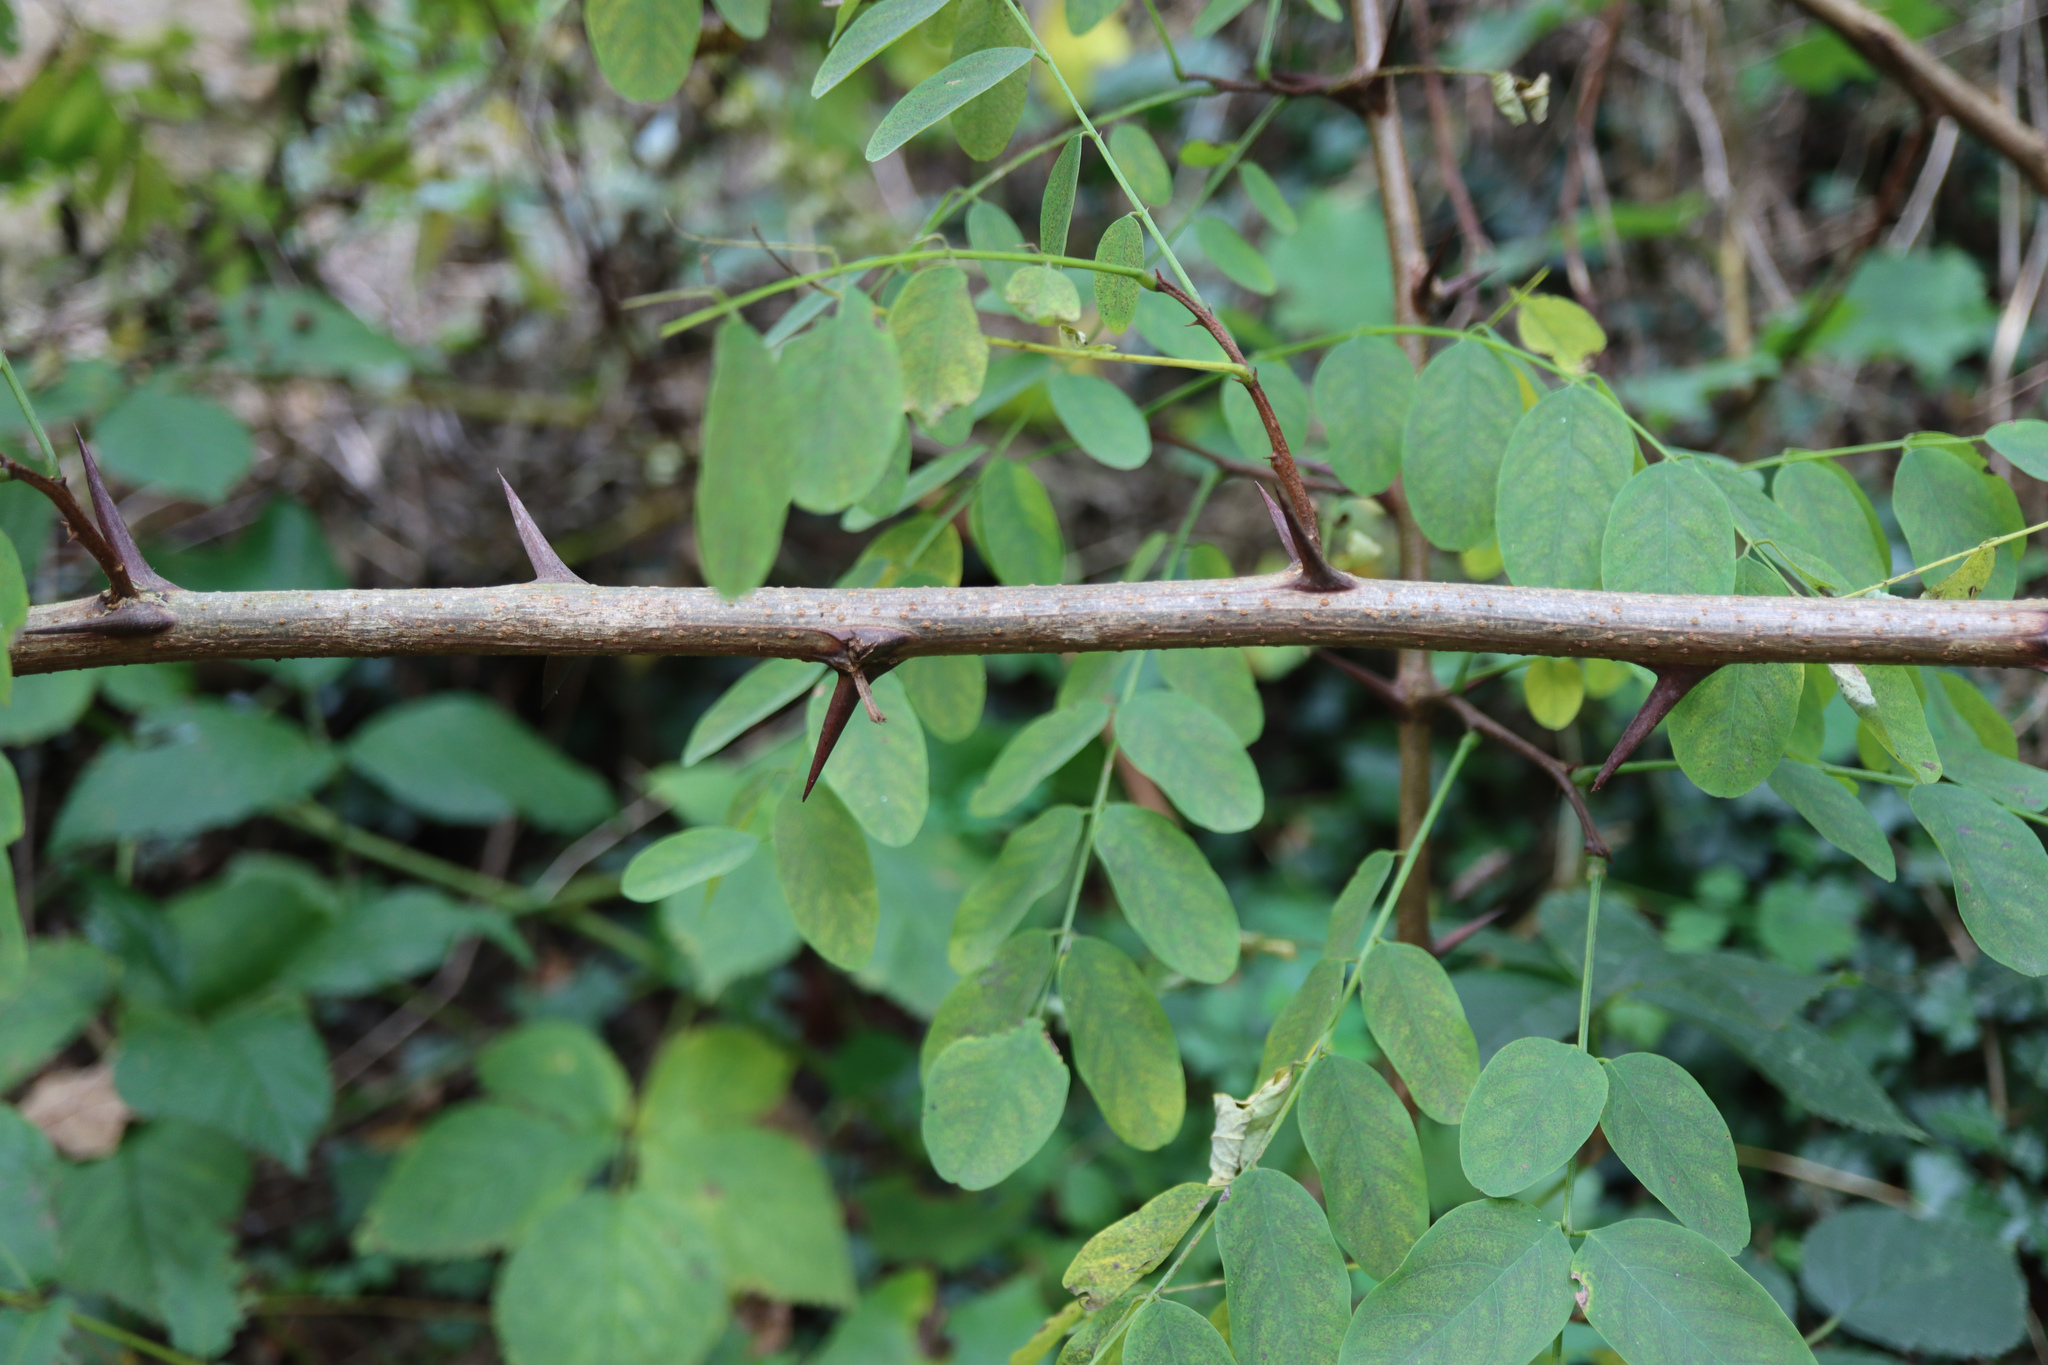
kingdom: Plantae
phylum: Tracheophyta
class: Magnoliopsida
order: Fabales
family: Fabaceae
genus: Robinia
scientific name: Robinia pseudoacacia
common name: Black locust
